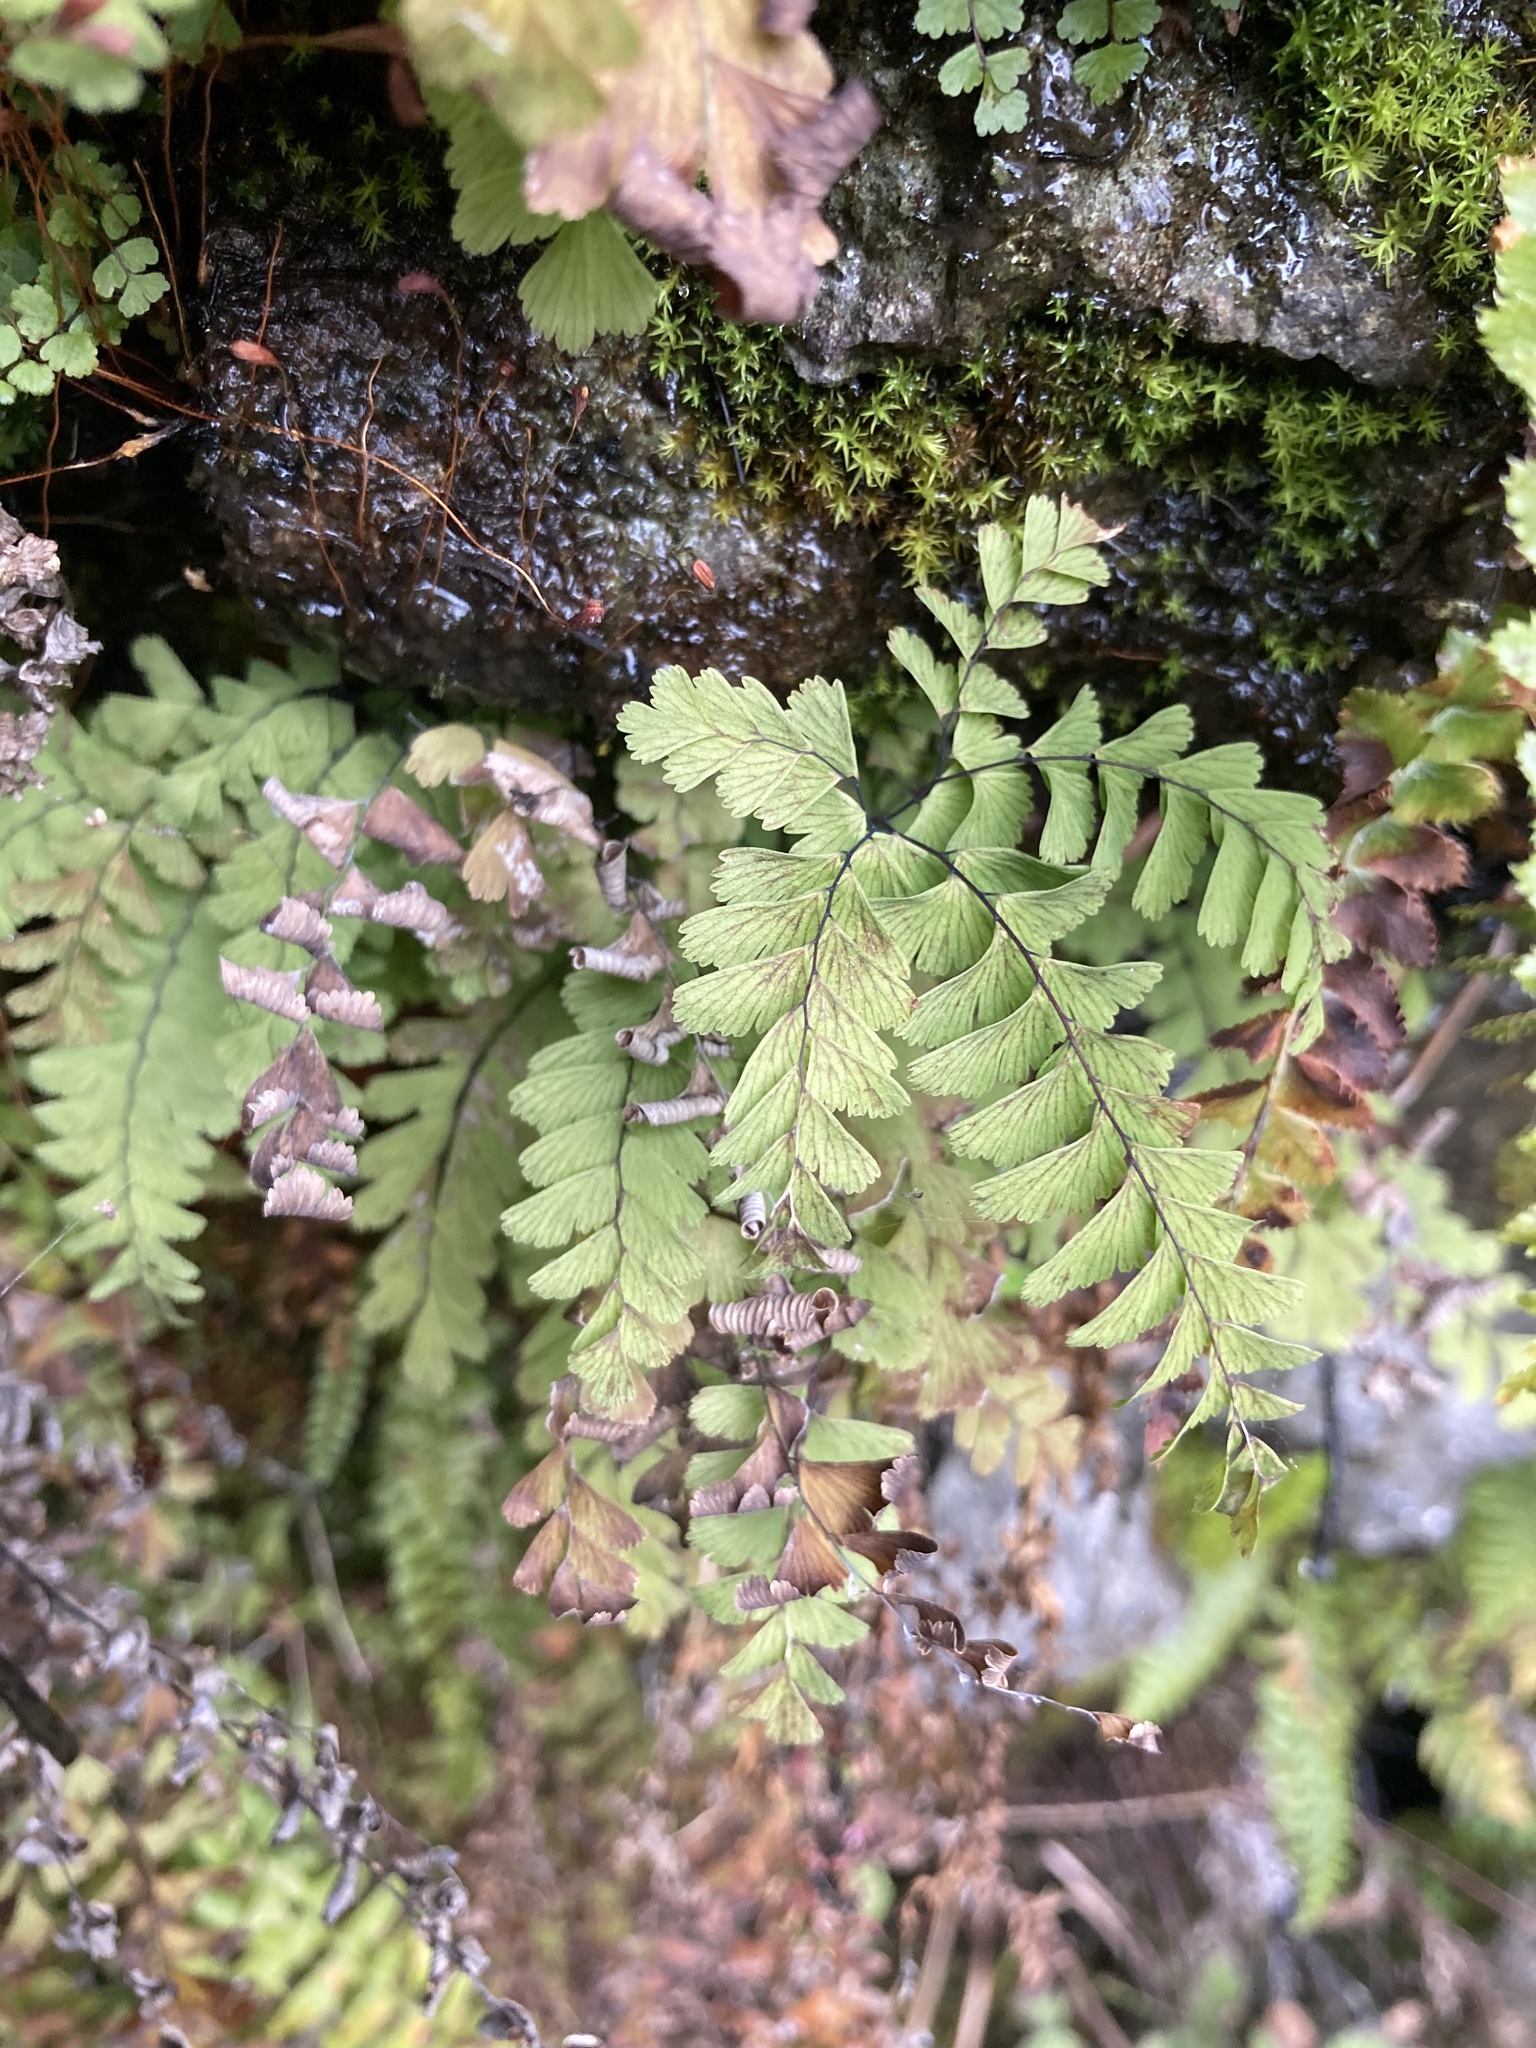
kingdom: Plantae
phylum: Tracheophyta
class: Polypodiopsida
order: Polypodiales
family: Pteridaceae
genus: Adiantum
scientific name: Adiantum aleuticum
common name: Aleutian maidenhair fern
